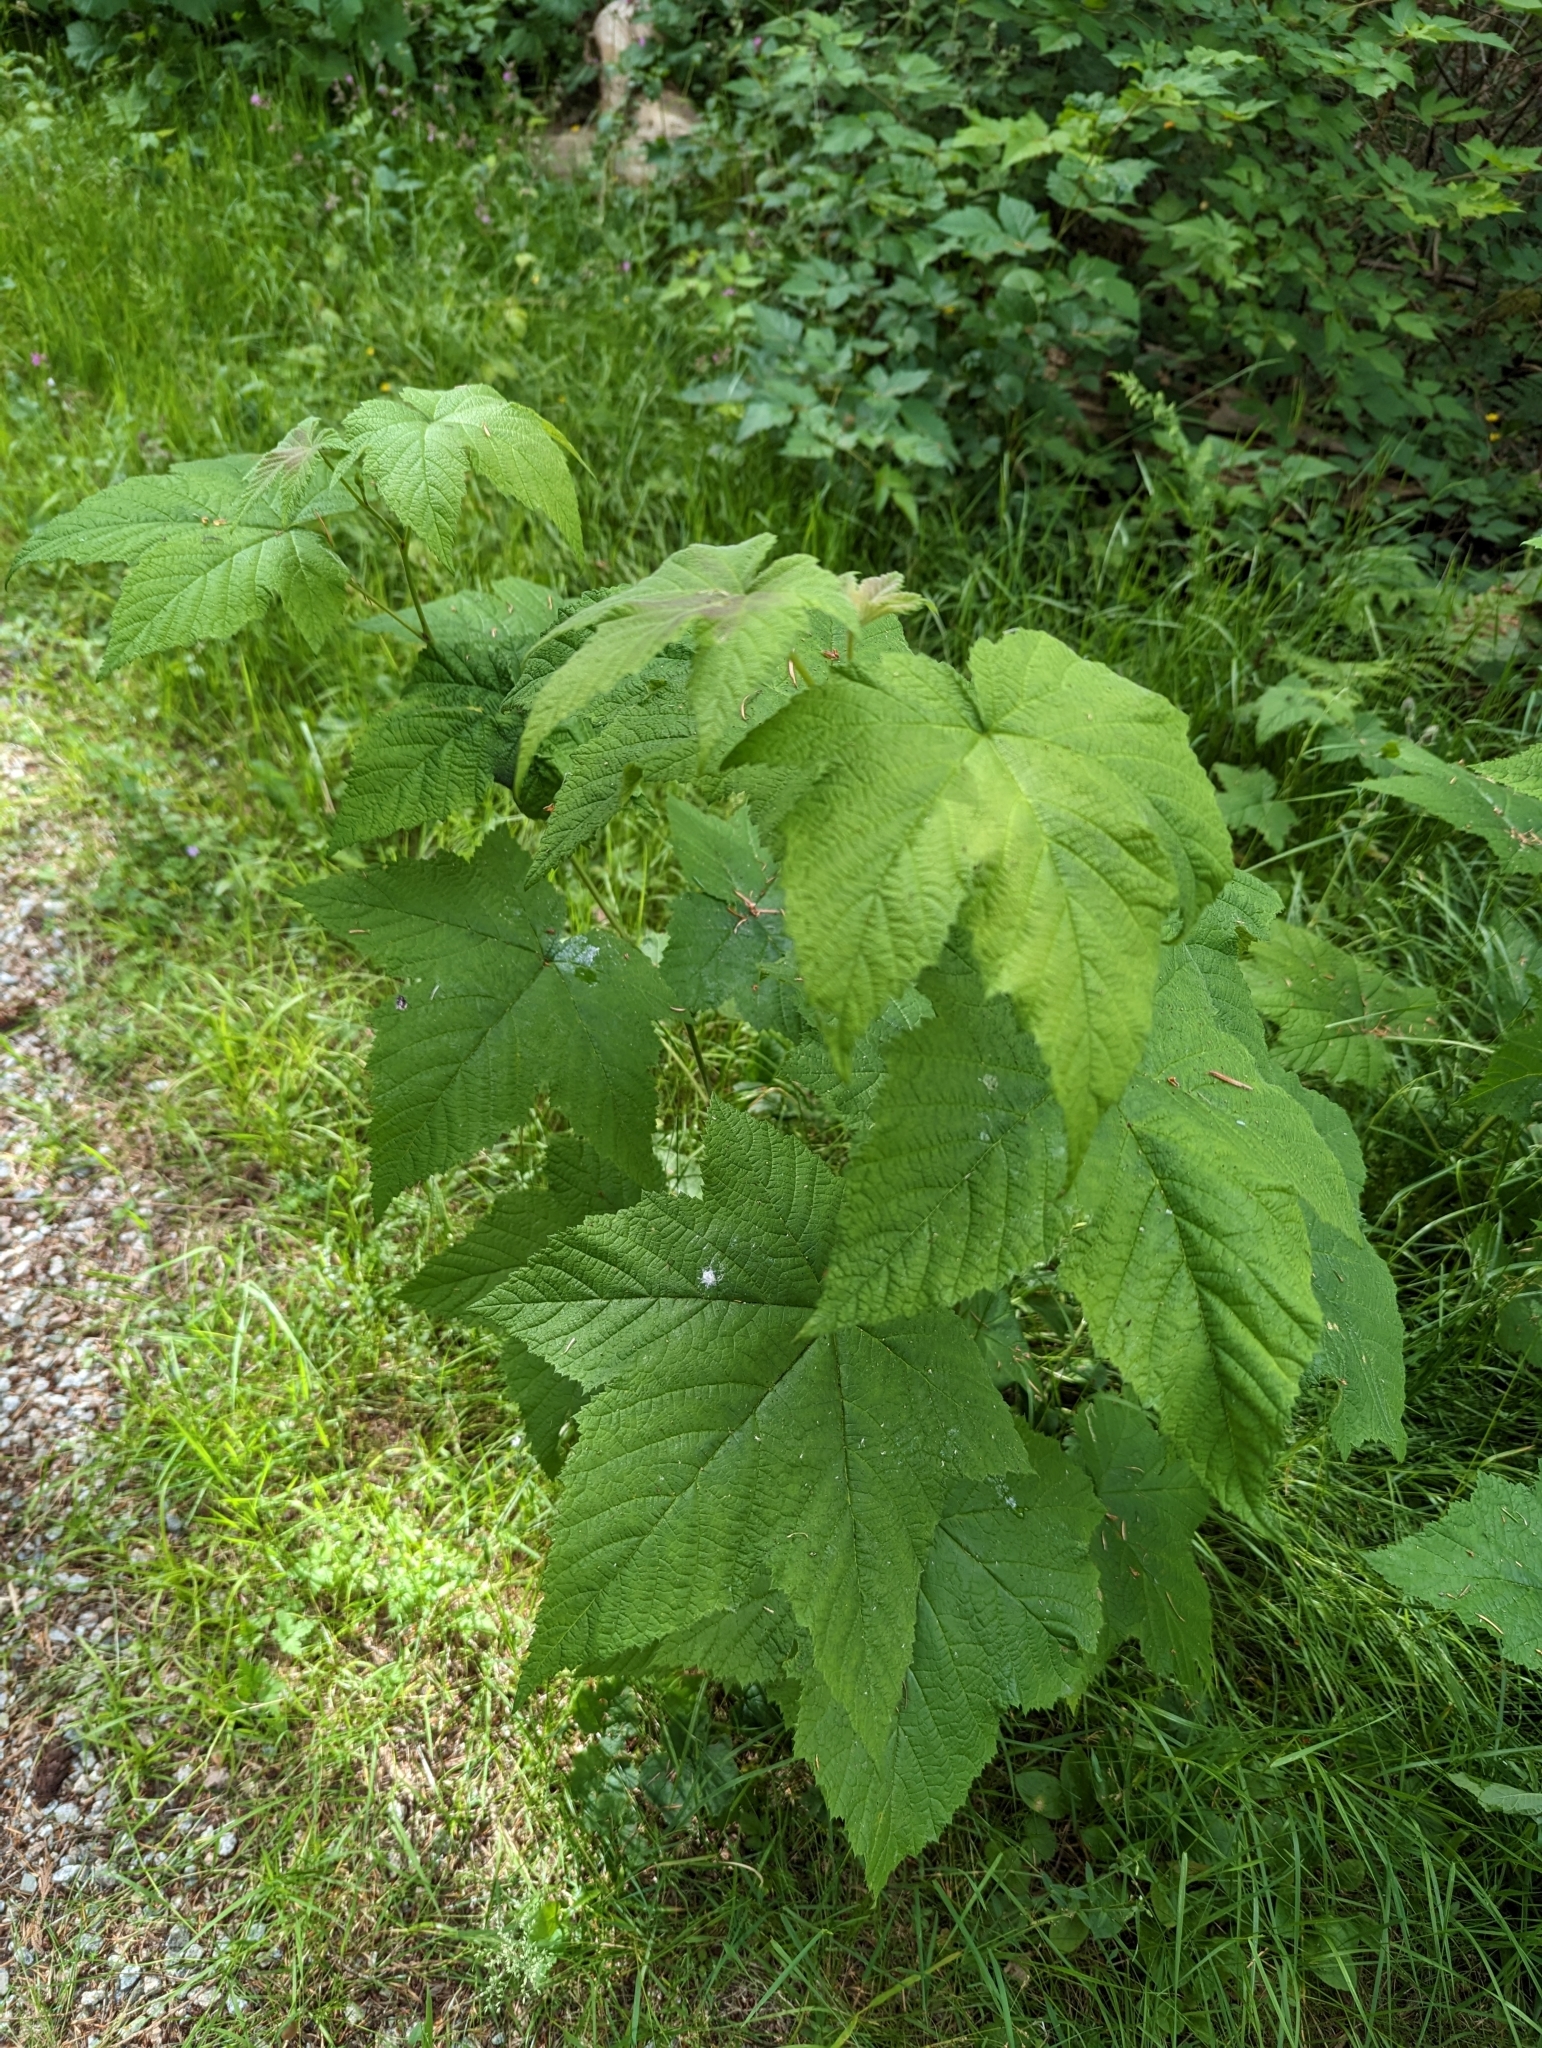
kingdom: Plantae
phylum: Tracheophyta
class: Magnoliopsida
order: Rosales
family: Rosaceae
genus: Rubus
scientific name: Rubus parviflorus
